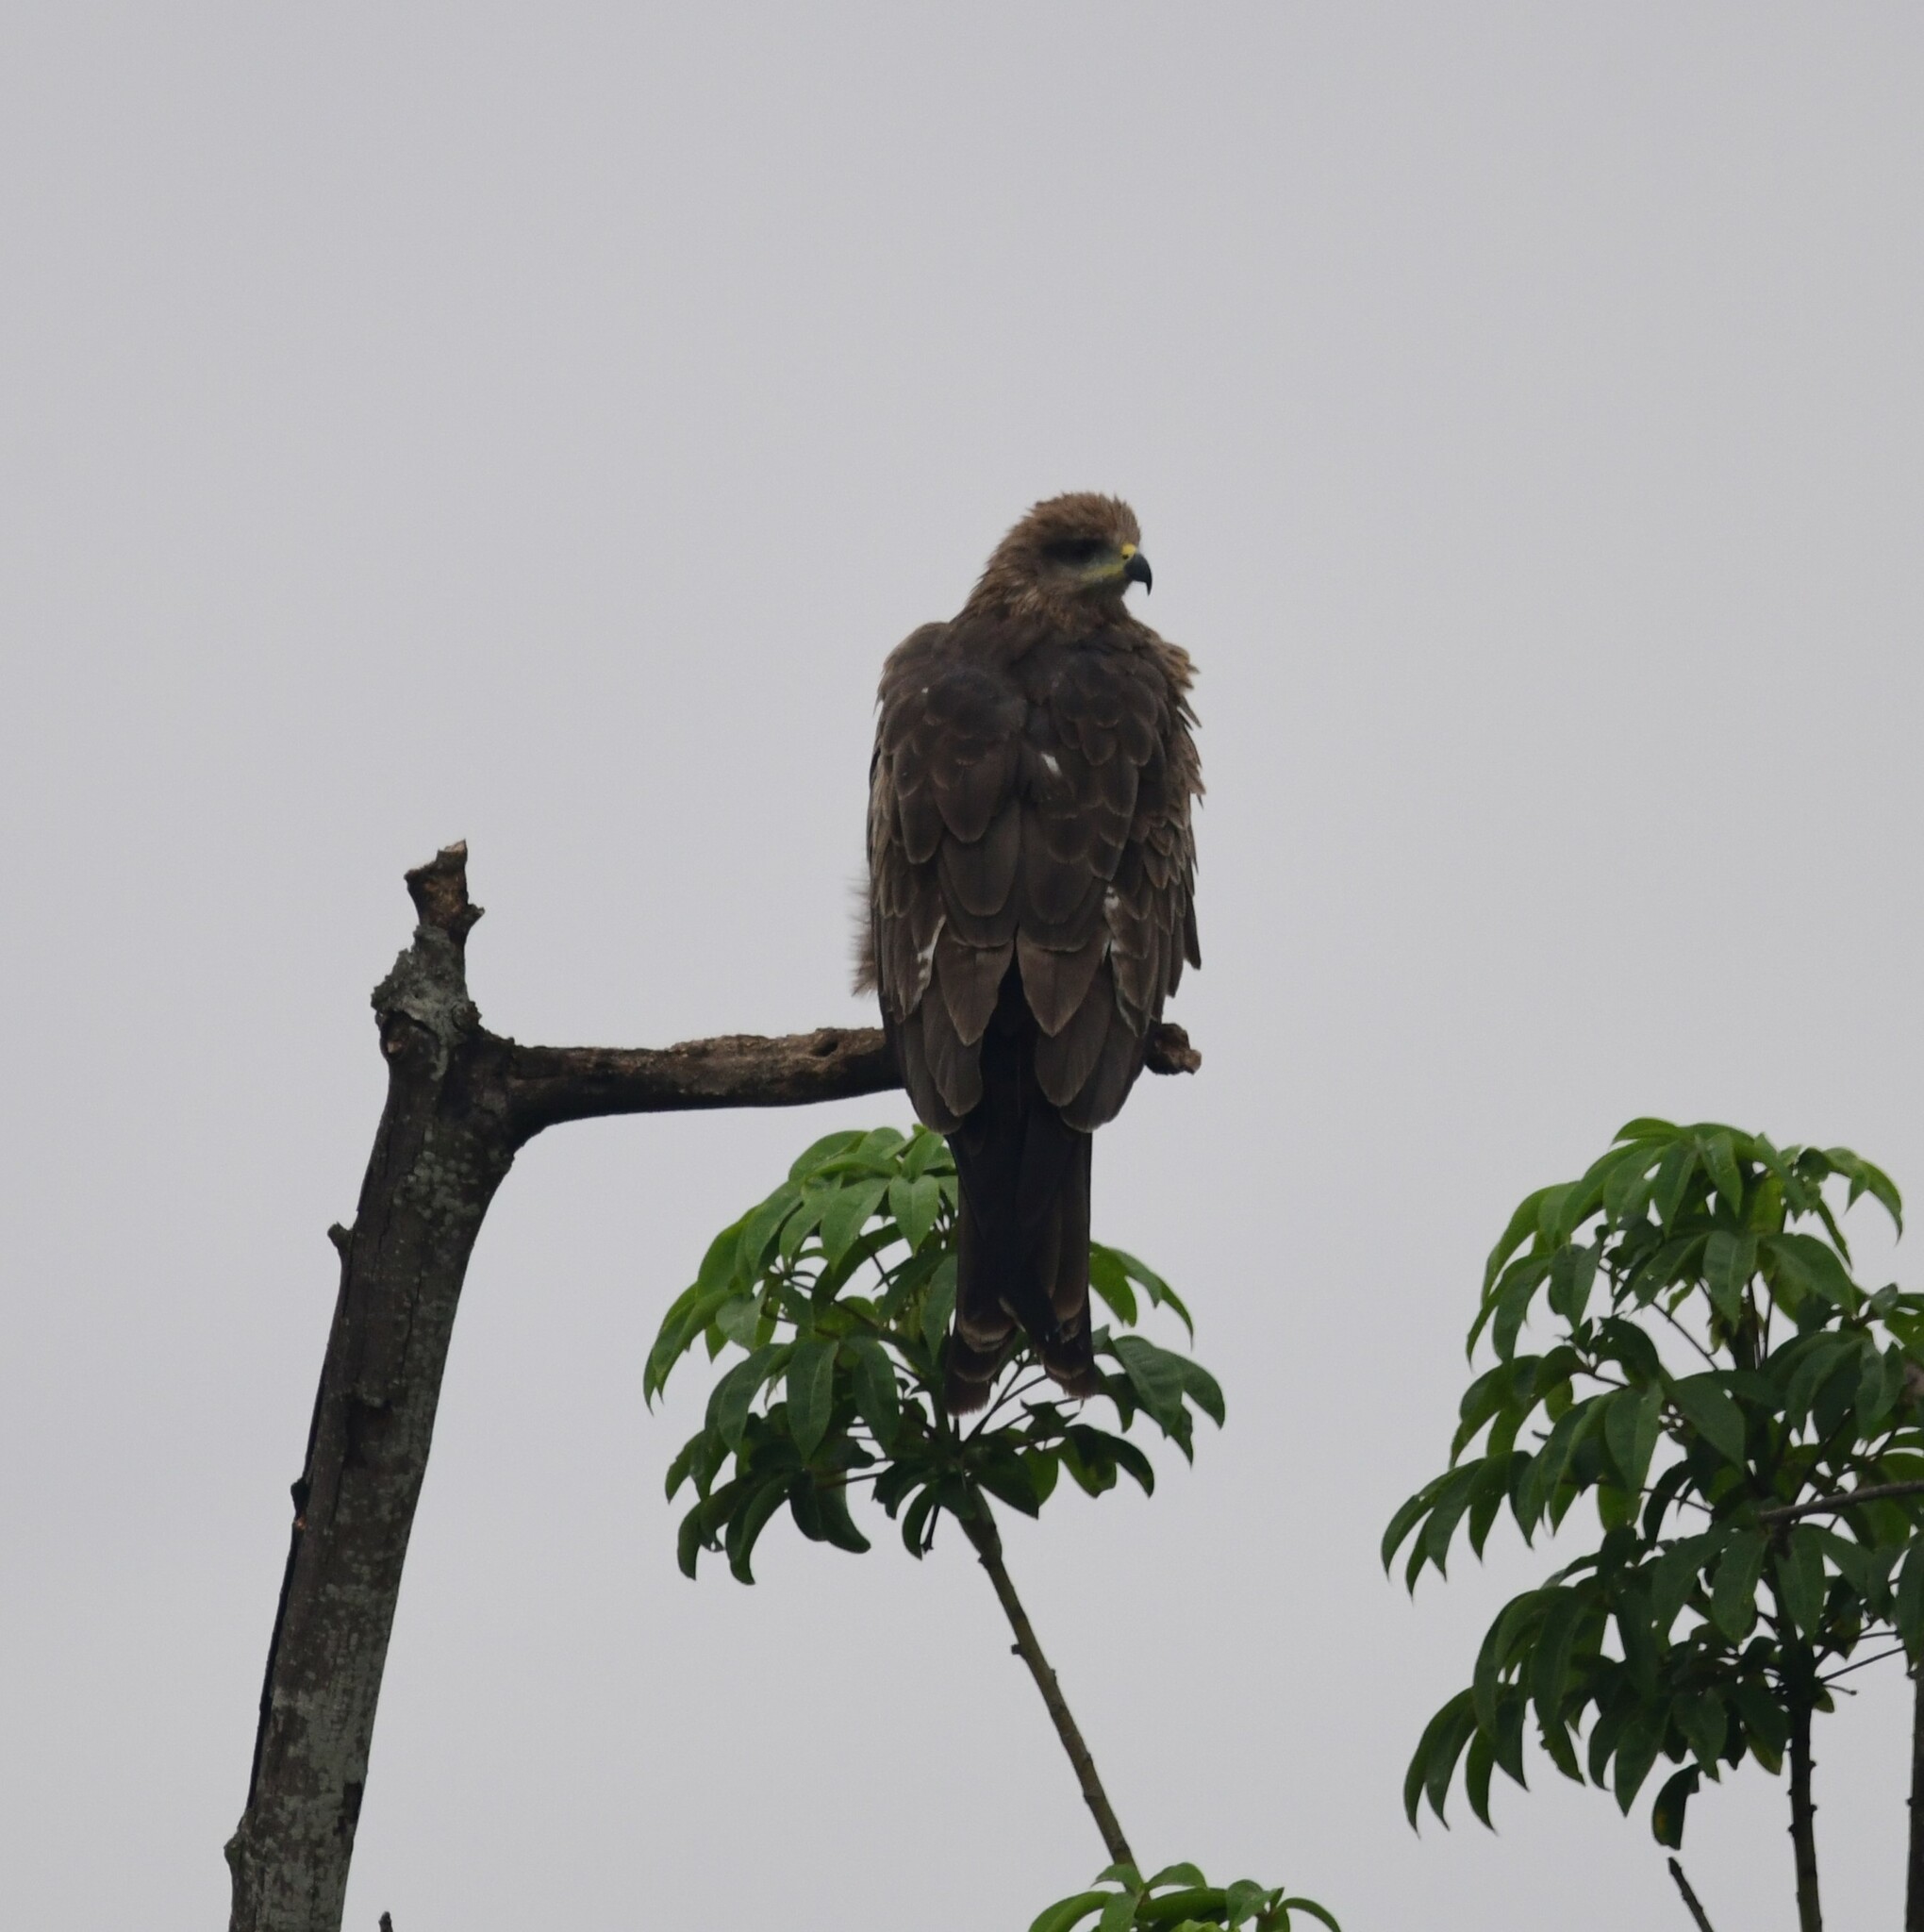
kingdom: Animalia
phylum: Chordata
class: Aves
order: Accipitriformes
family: Accipitridae
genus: Milvus
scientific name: Milvus migrans
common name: Black kite
